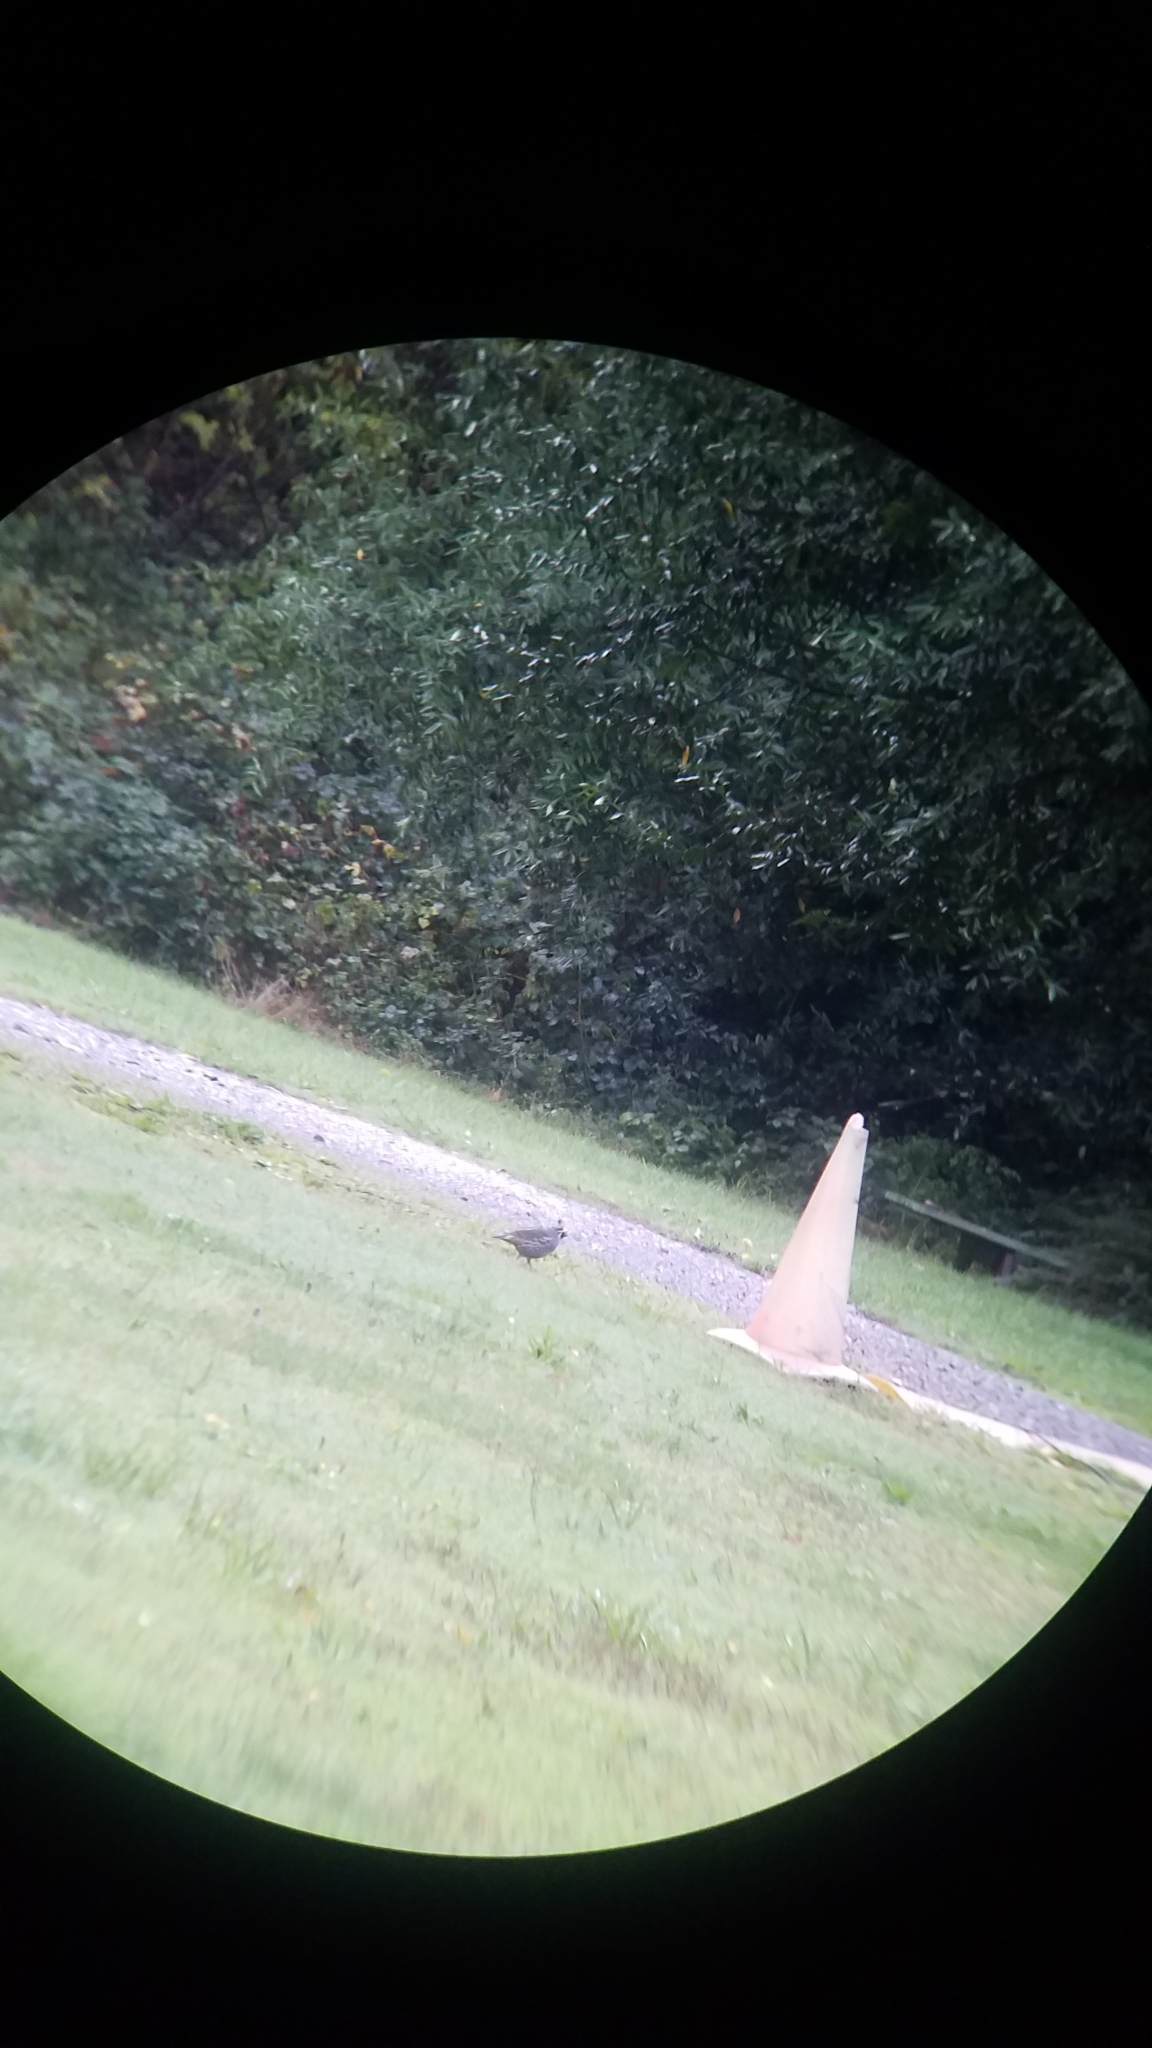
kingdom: Animalia
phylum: Chordata
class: Aves
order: Galliformes
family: Odontophoridae
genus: Callipepla
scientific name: Callipepla californica
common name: California quail
